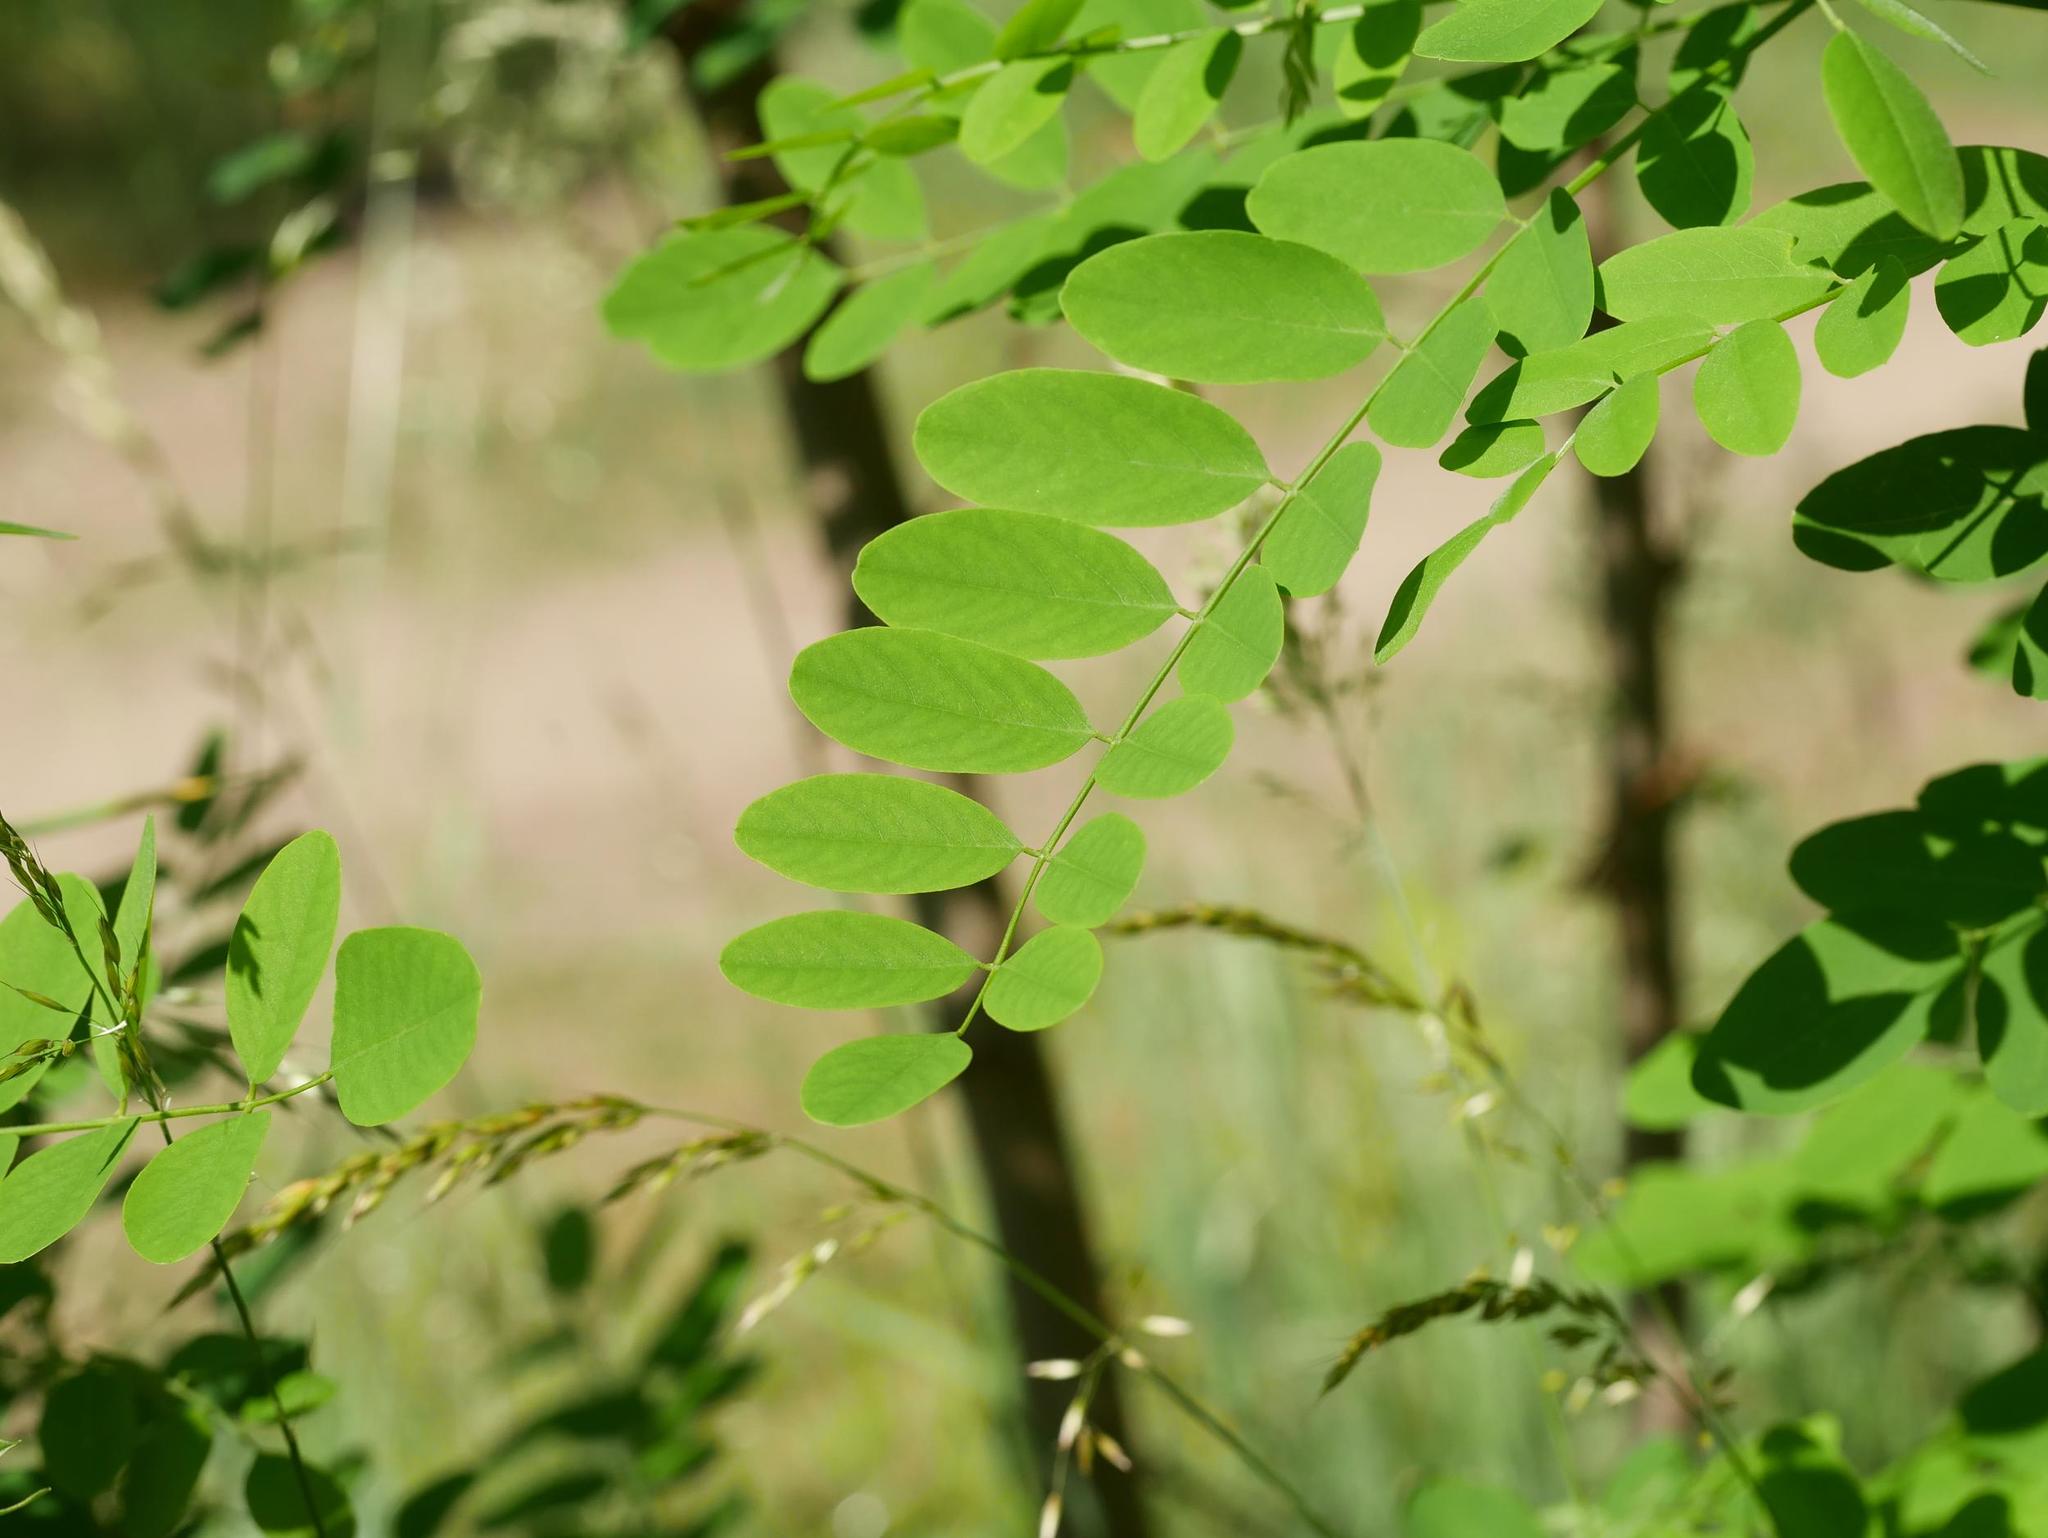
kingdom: Plantae
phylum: Tracheophyta
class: Magnoliopsida
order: Fabales
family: Fabaceae
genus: Robinia
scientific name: Robinia pseudoacacia
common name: Black locust
